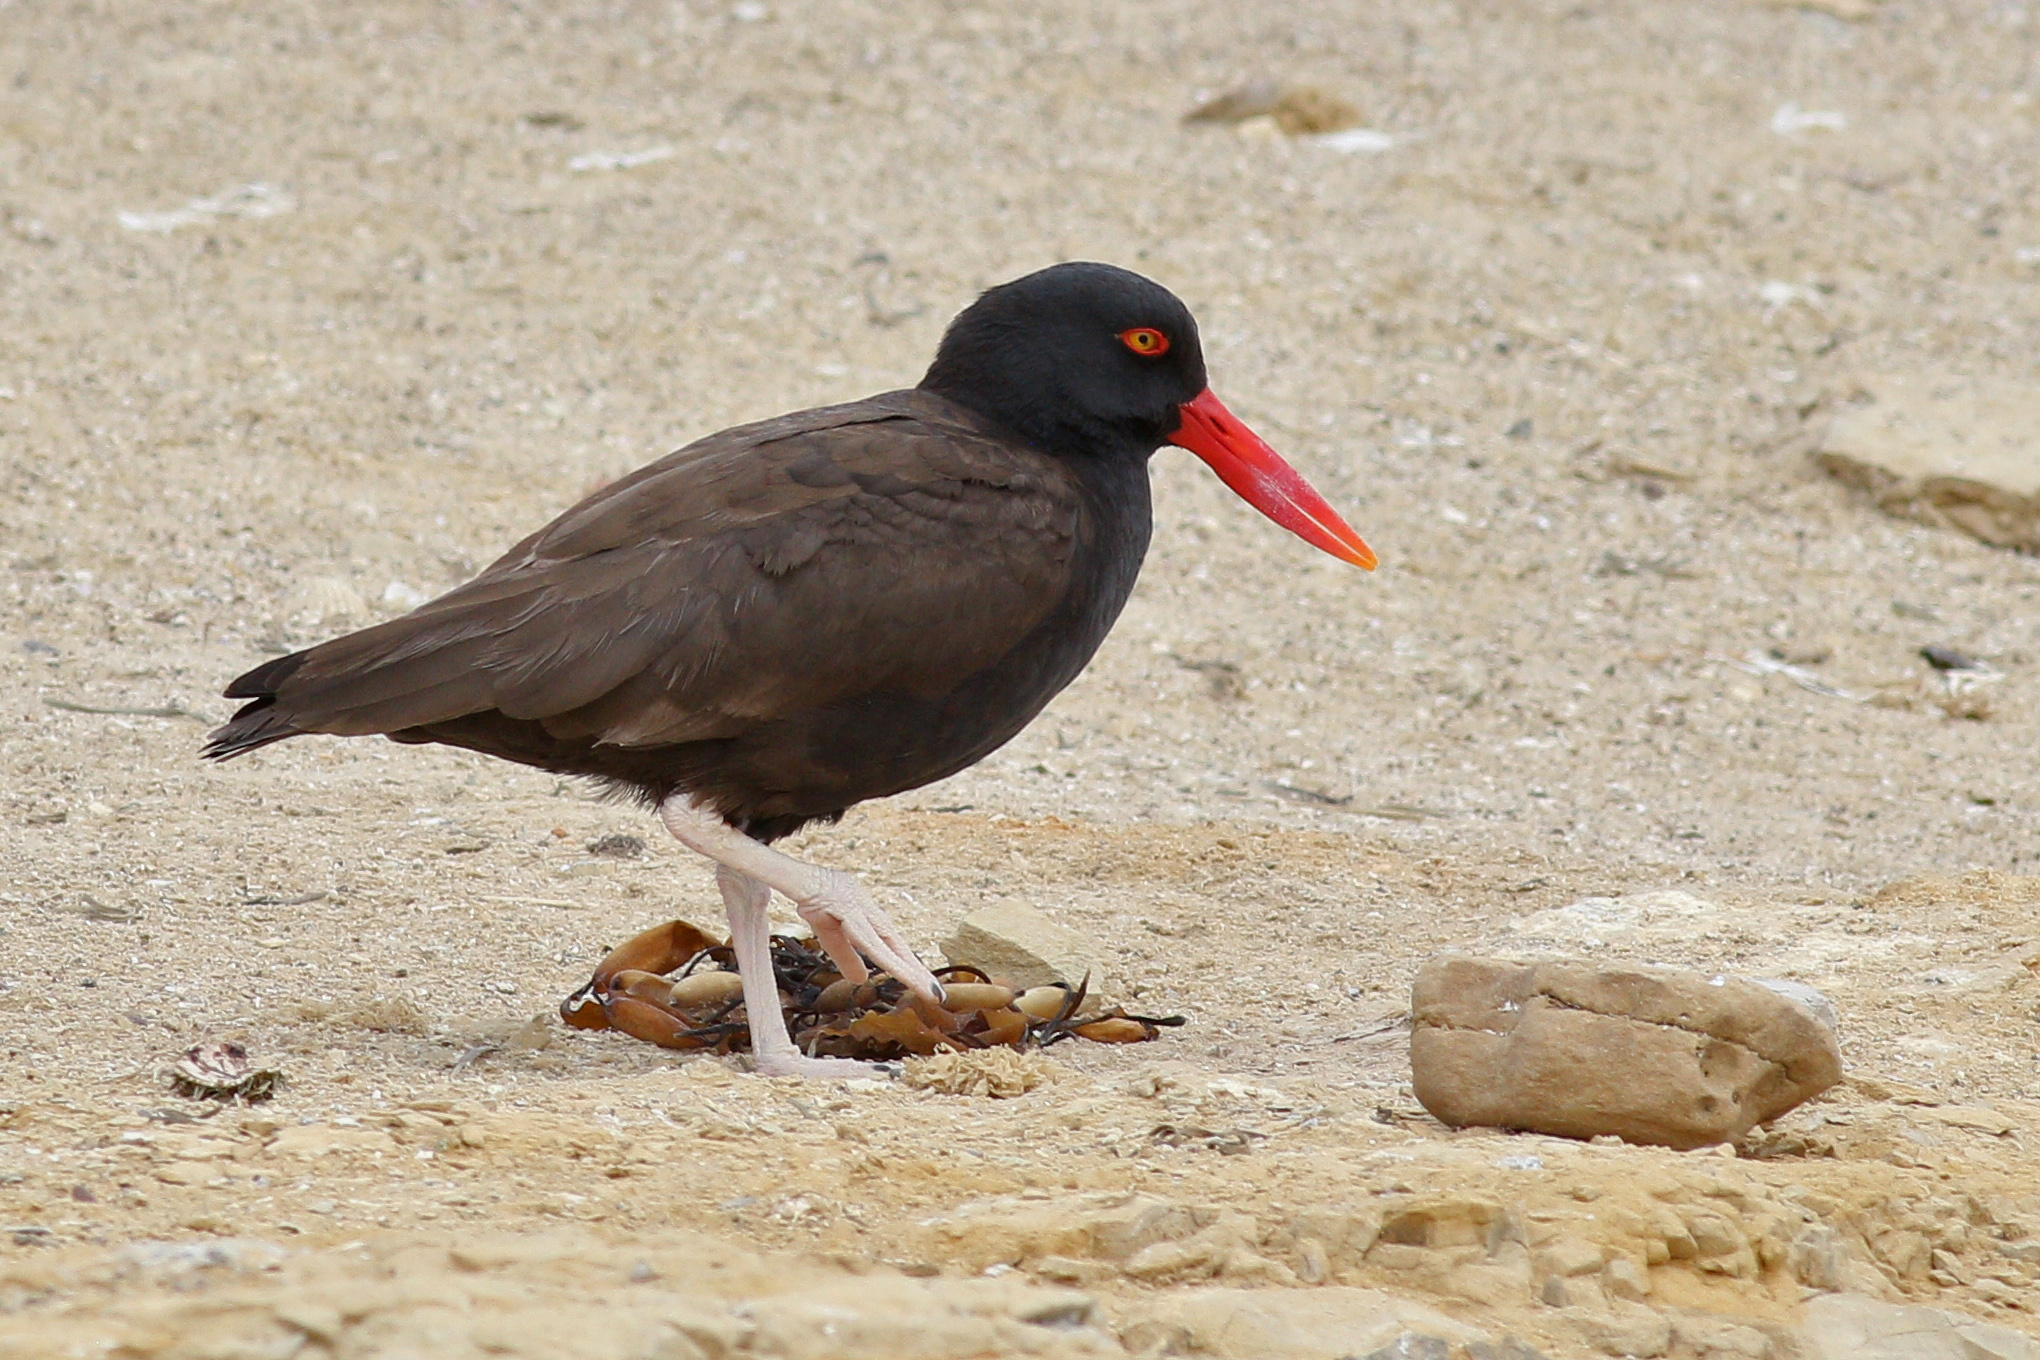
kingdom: Animalia
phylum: Chordata
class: Aves
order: Charadriiformes
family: Haematopodidae
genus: Haematopus
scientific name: Haematopus ater
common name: Blackish oystercatcher
